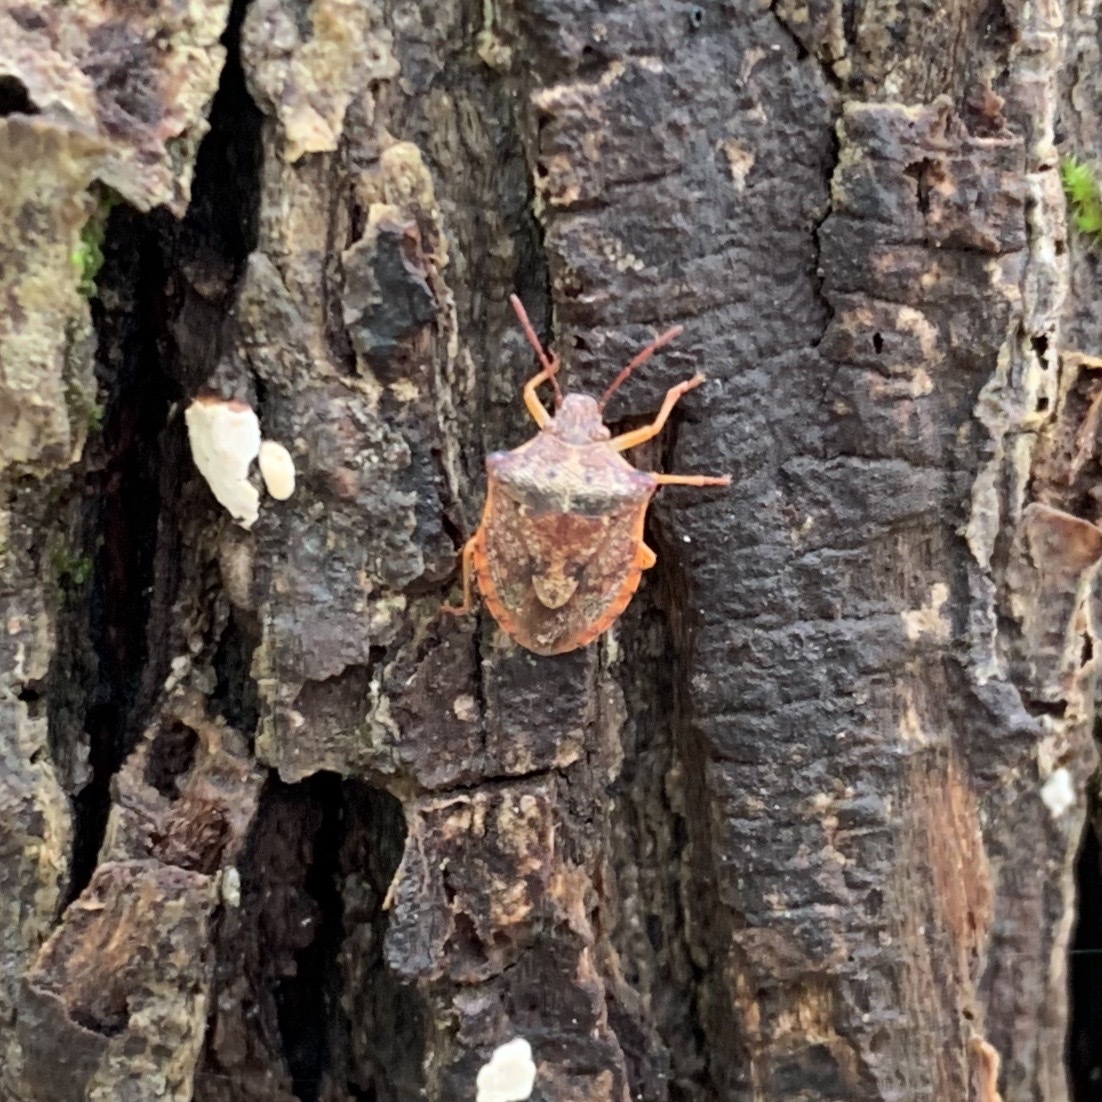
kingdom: Animalia
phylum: Arthropoda
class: Insecta
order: Hemiptera
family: Pentatomidae
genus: Dendrocoris
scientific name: Dendrocoris humeralis
